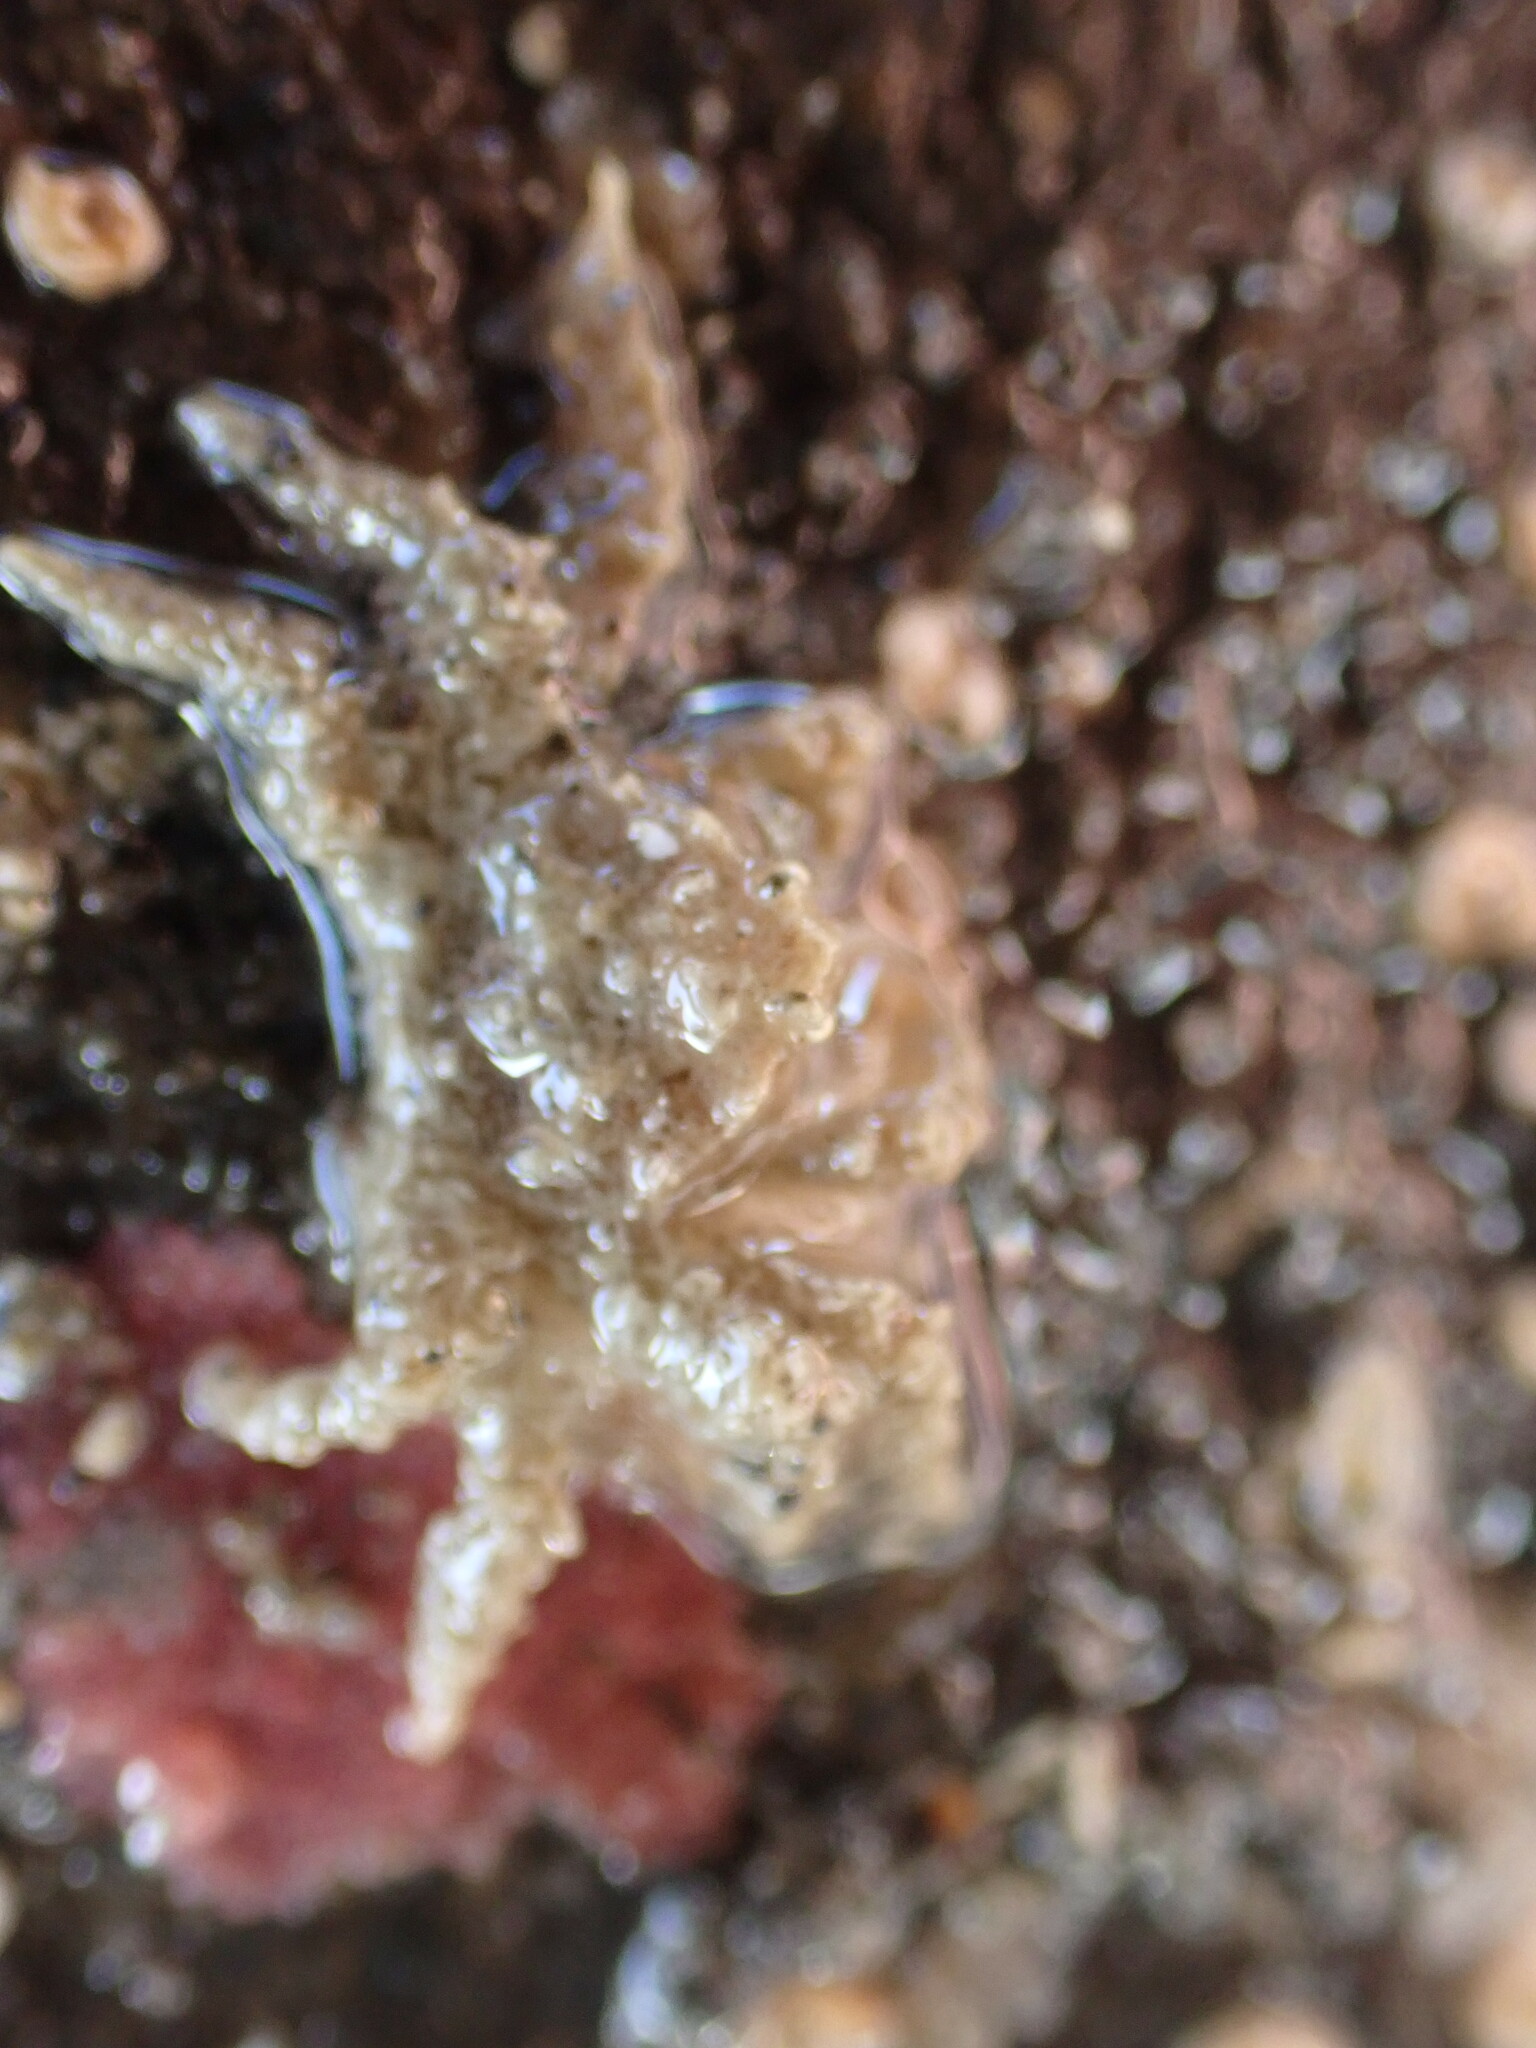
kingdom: Animalia
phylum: Arthropoda
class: Malacostraca
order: Decapoda
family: Hymenosomatidae
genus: Neohymenicus
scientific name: Neohymenicus pubescens
